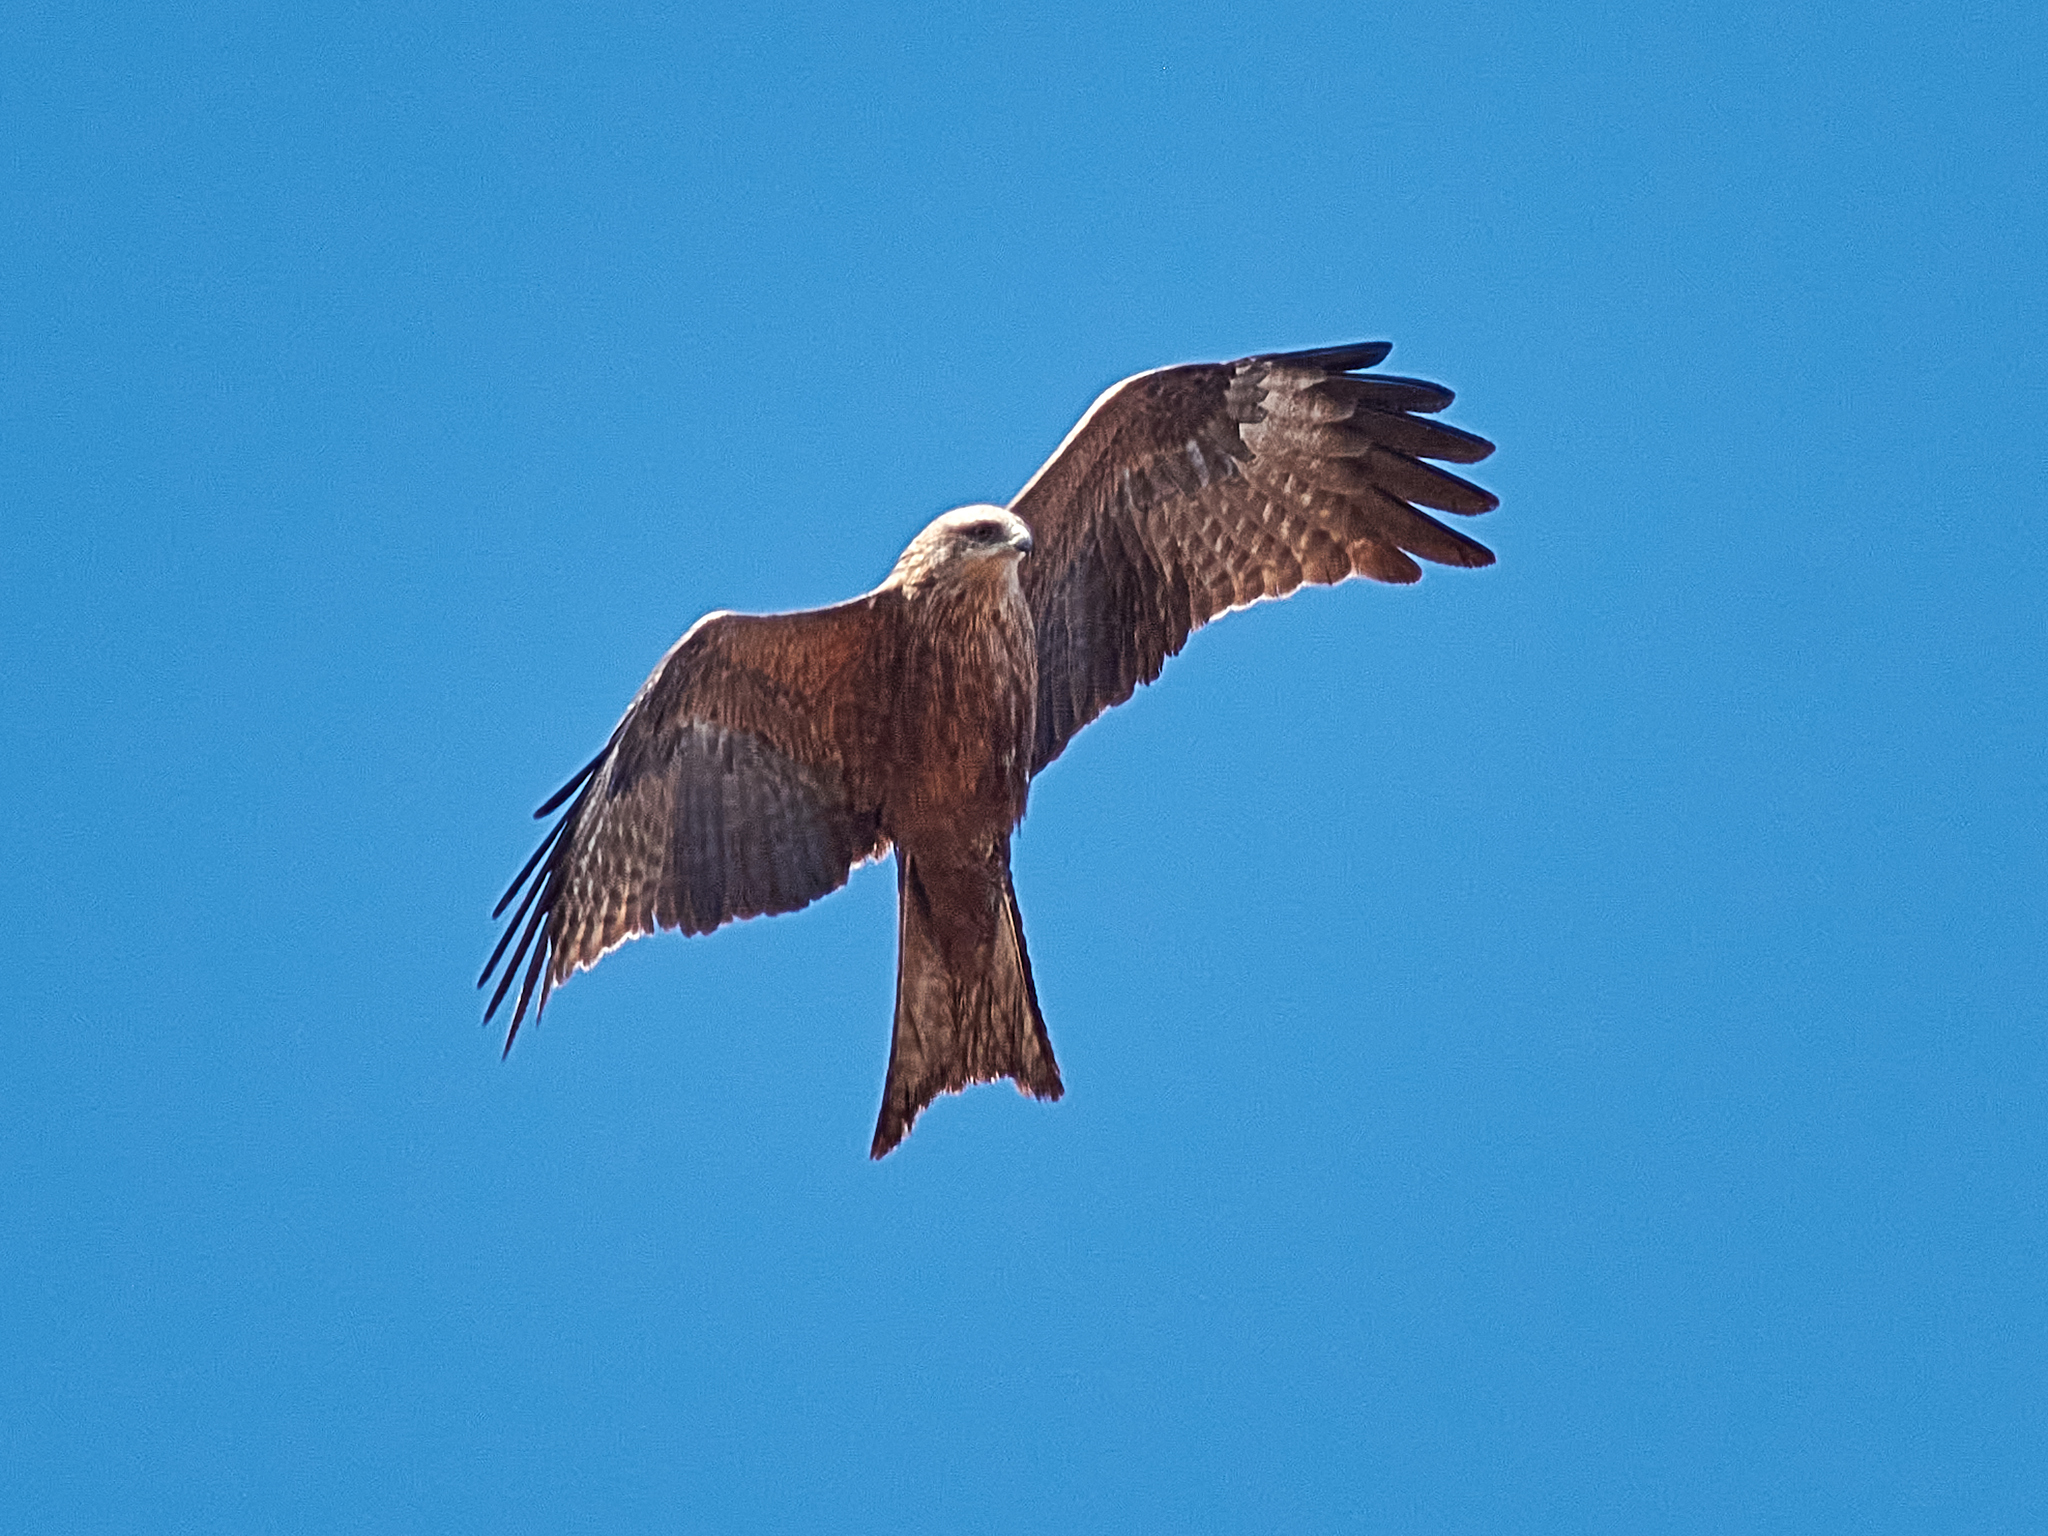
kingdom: Animalia
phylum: Chordata
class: Aves
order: Accipitriformes
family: Accipitridae
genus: Milvus
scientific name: Milvus migrans
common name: Black kite
